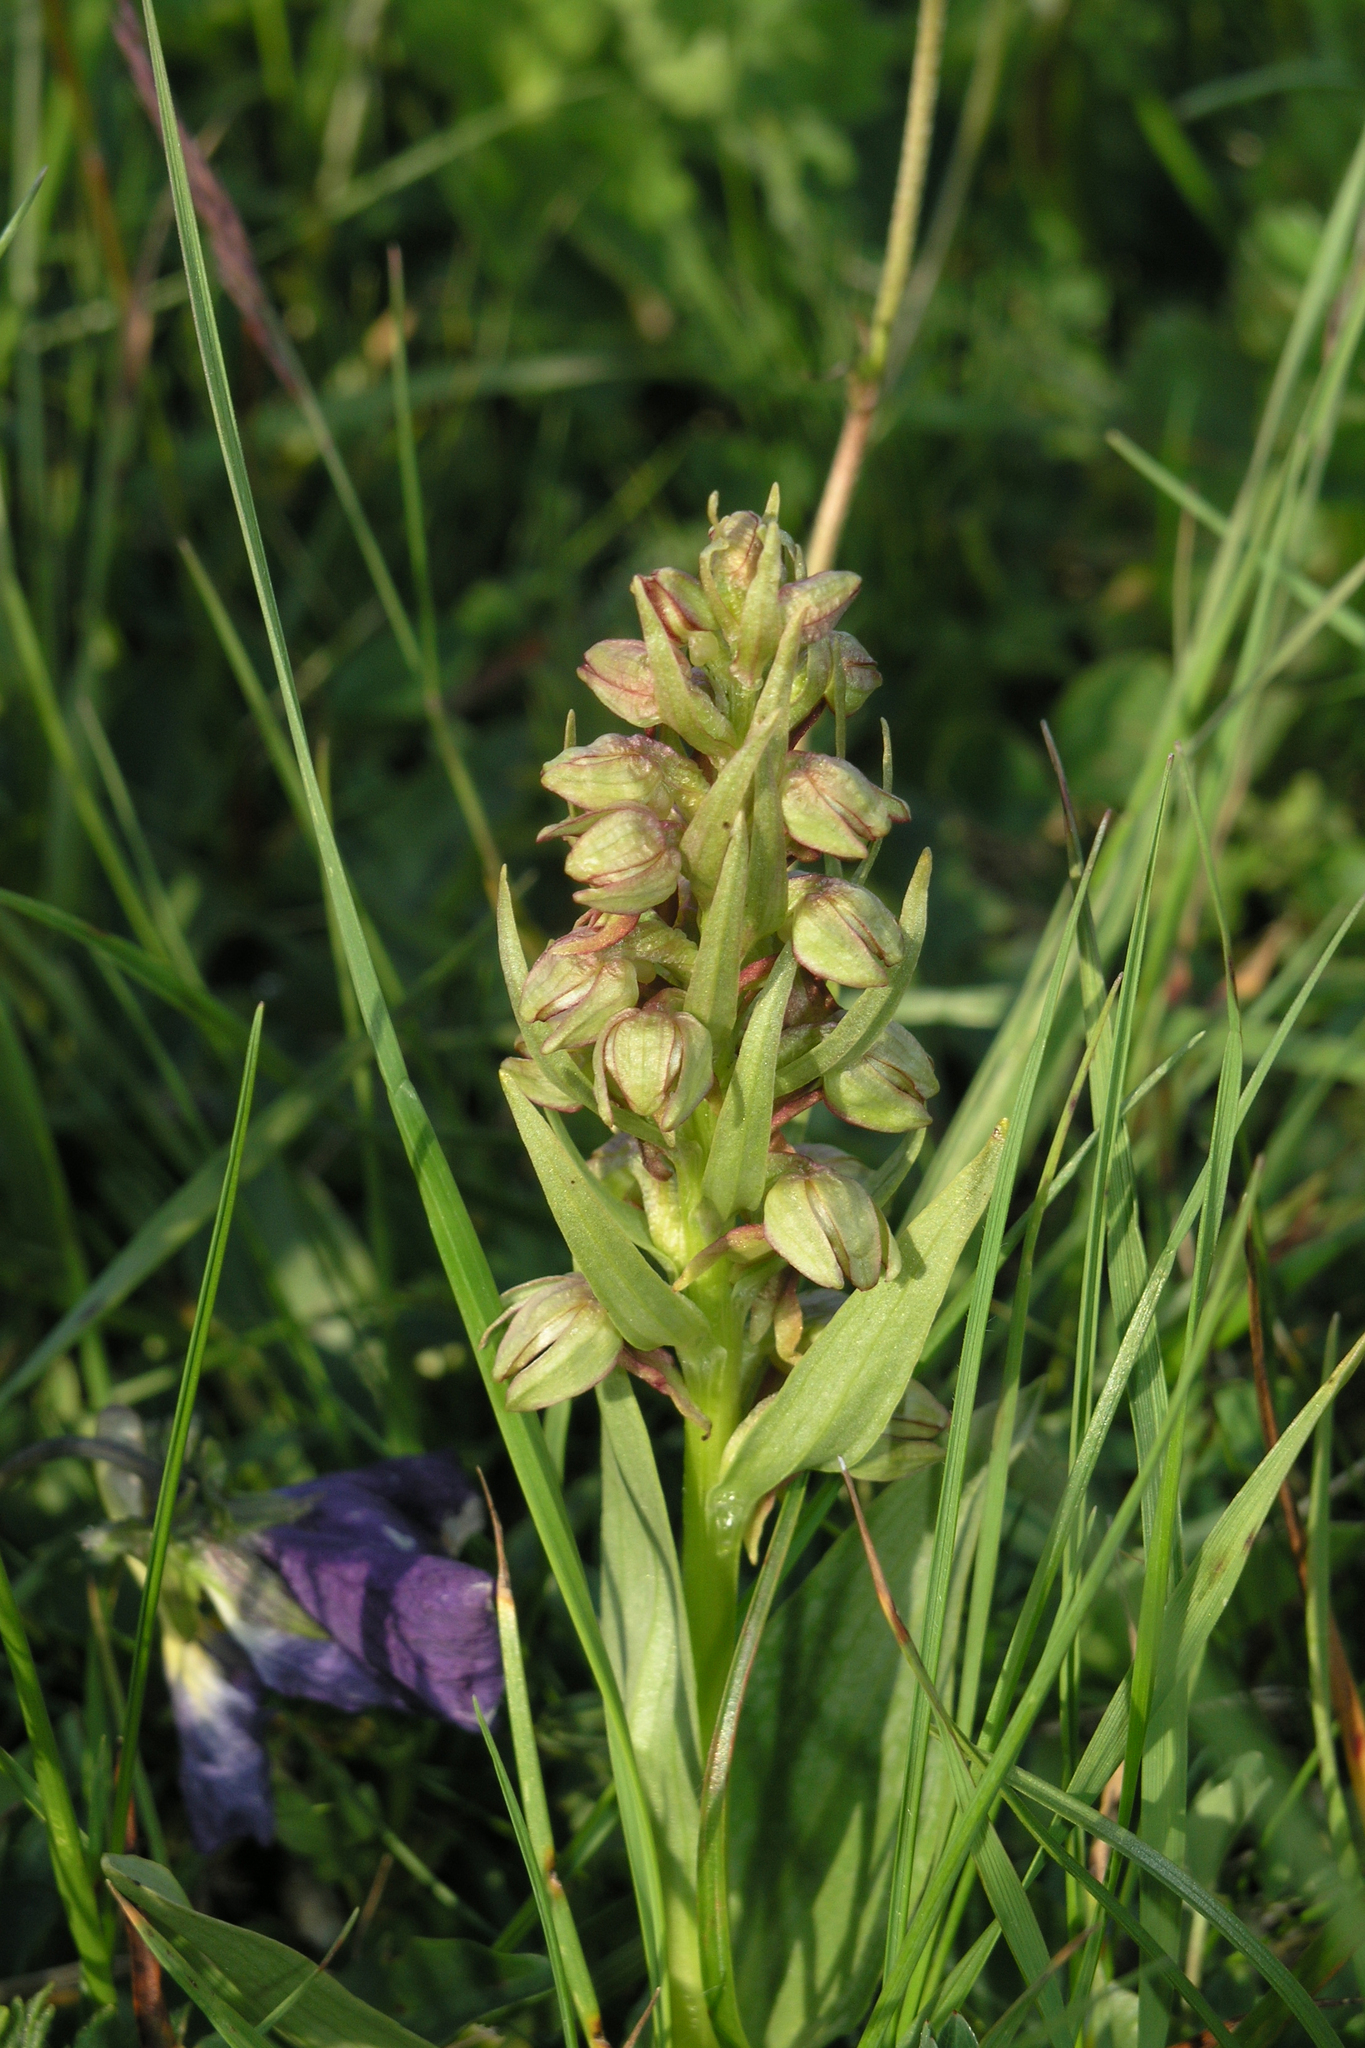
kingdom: Plantae
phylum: Tracheophyta
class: Liliopsida
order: Asparagales
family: Orchidaceae
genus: Dactylorhiza
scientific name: Dactylorhiza viridis
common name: Longbract frog orchid
